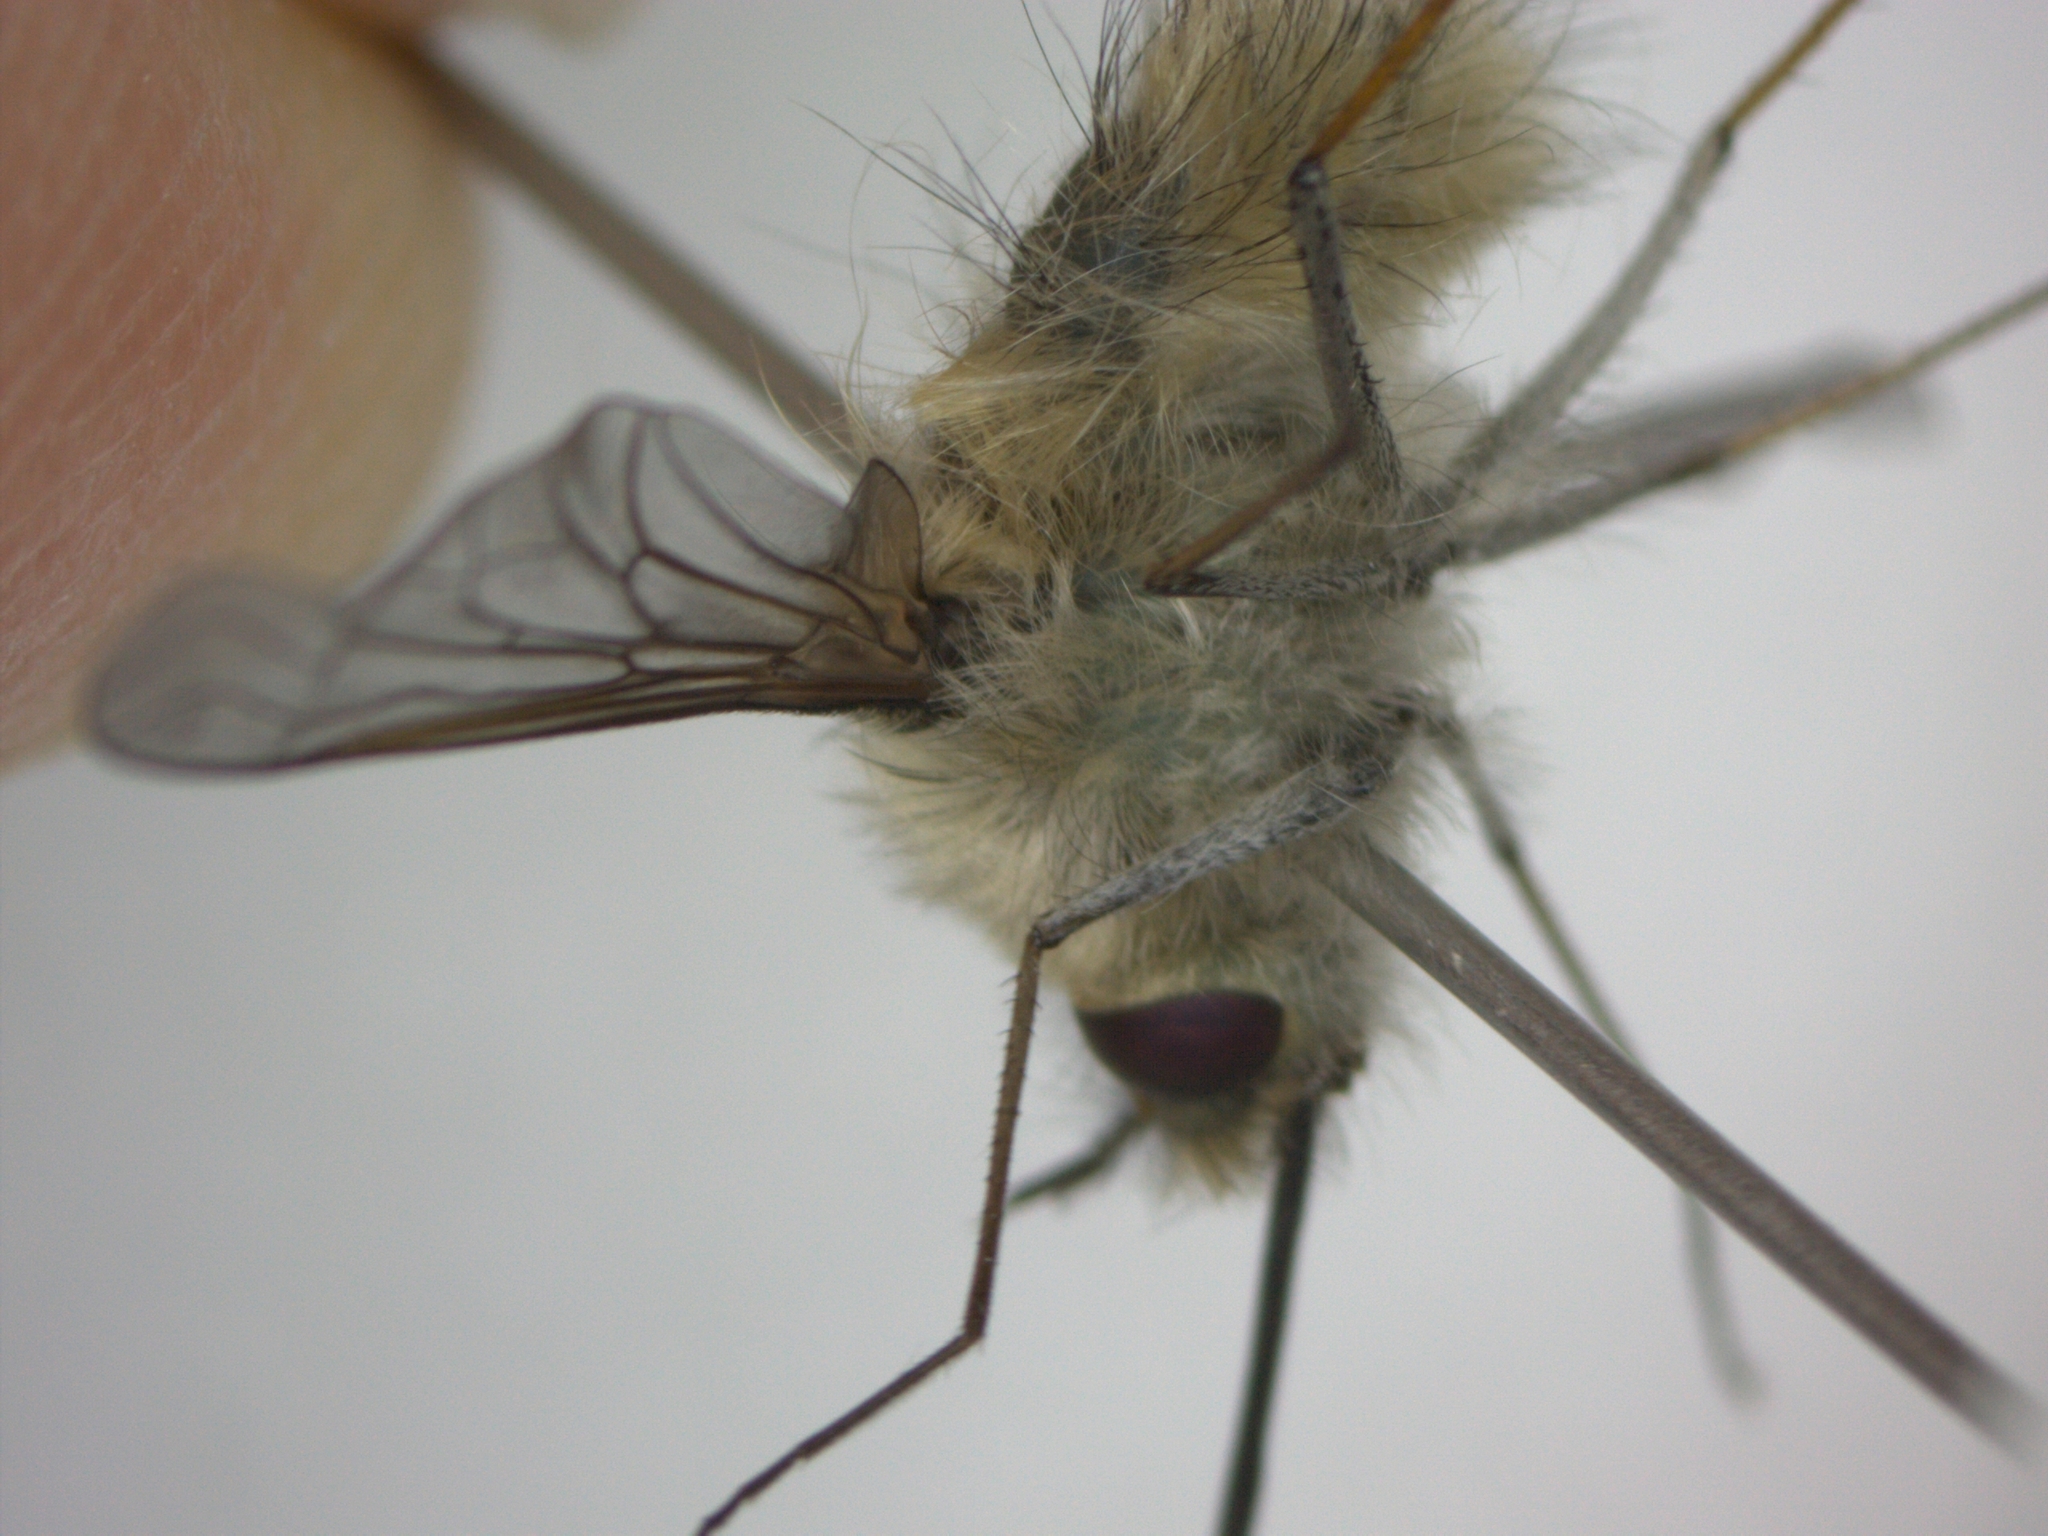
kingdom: Animalia
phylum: Arthropoda
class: Insecta
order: Diptera
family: Bombyliidae
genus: Bombylius
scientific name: Bombylius cinerascens
